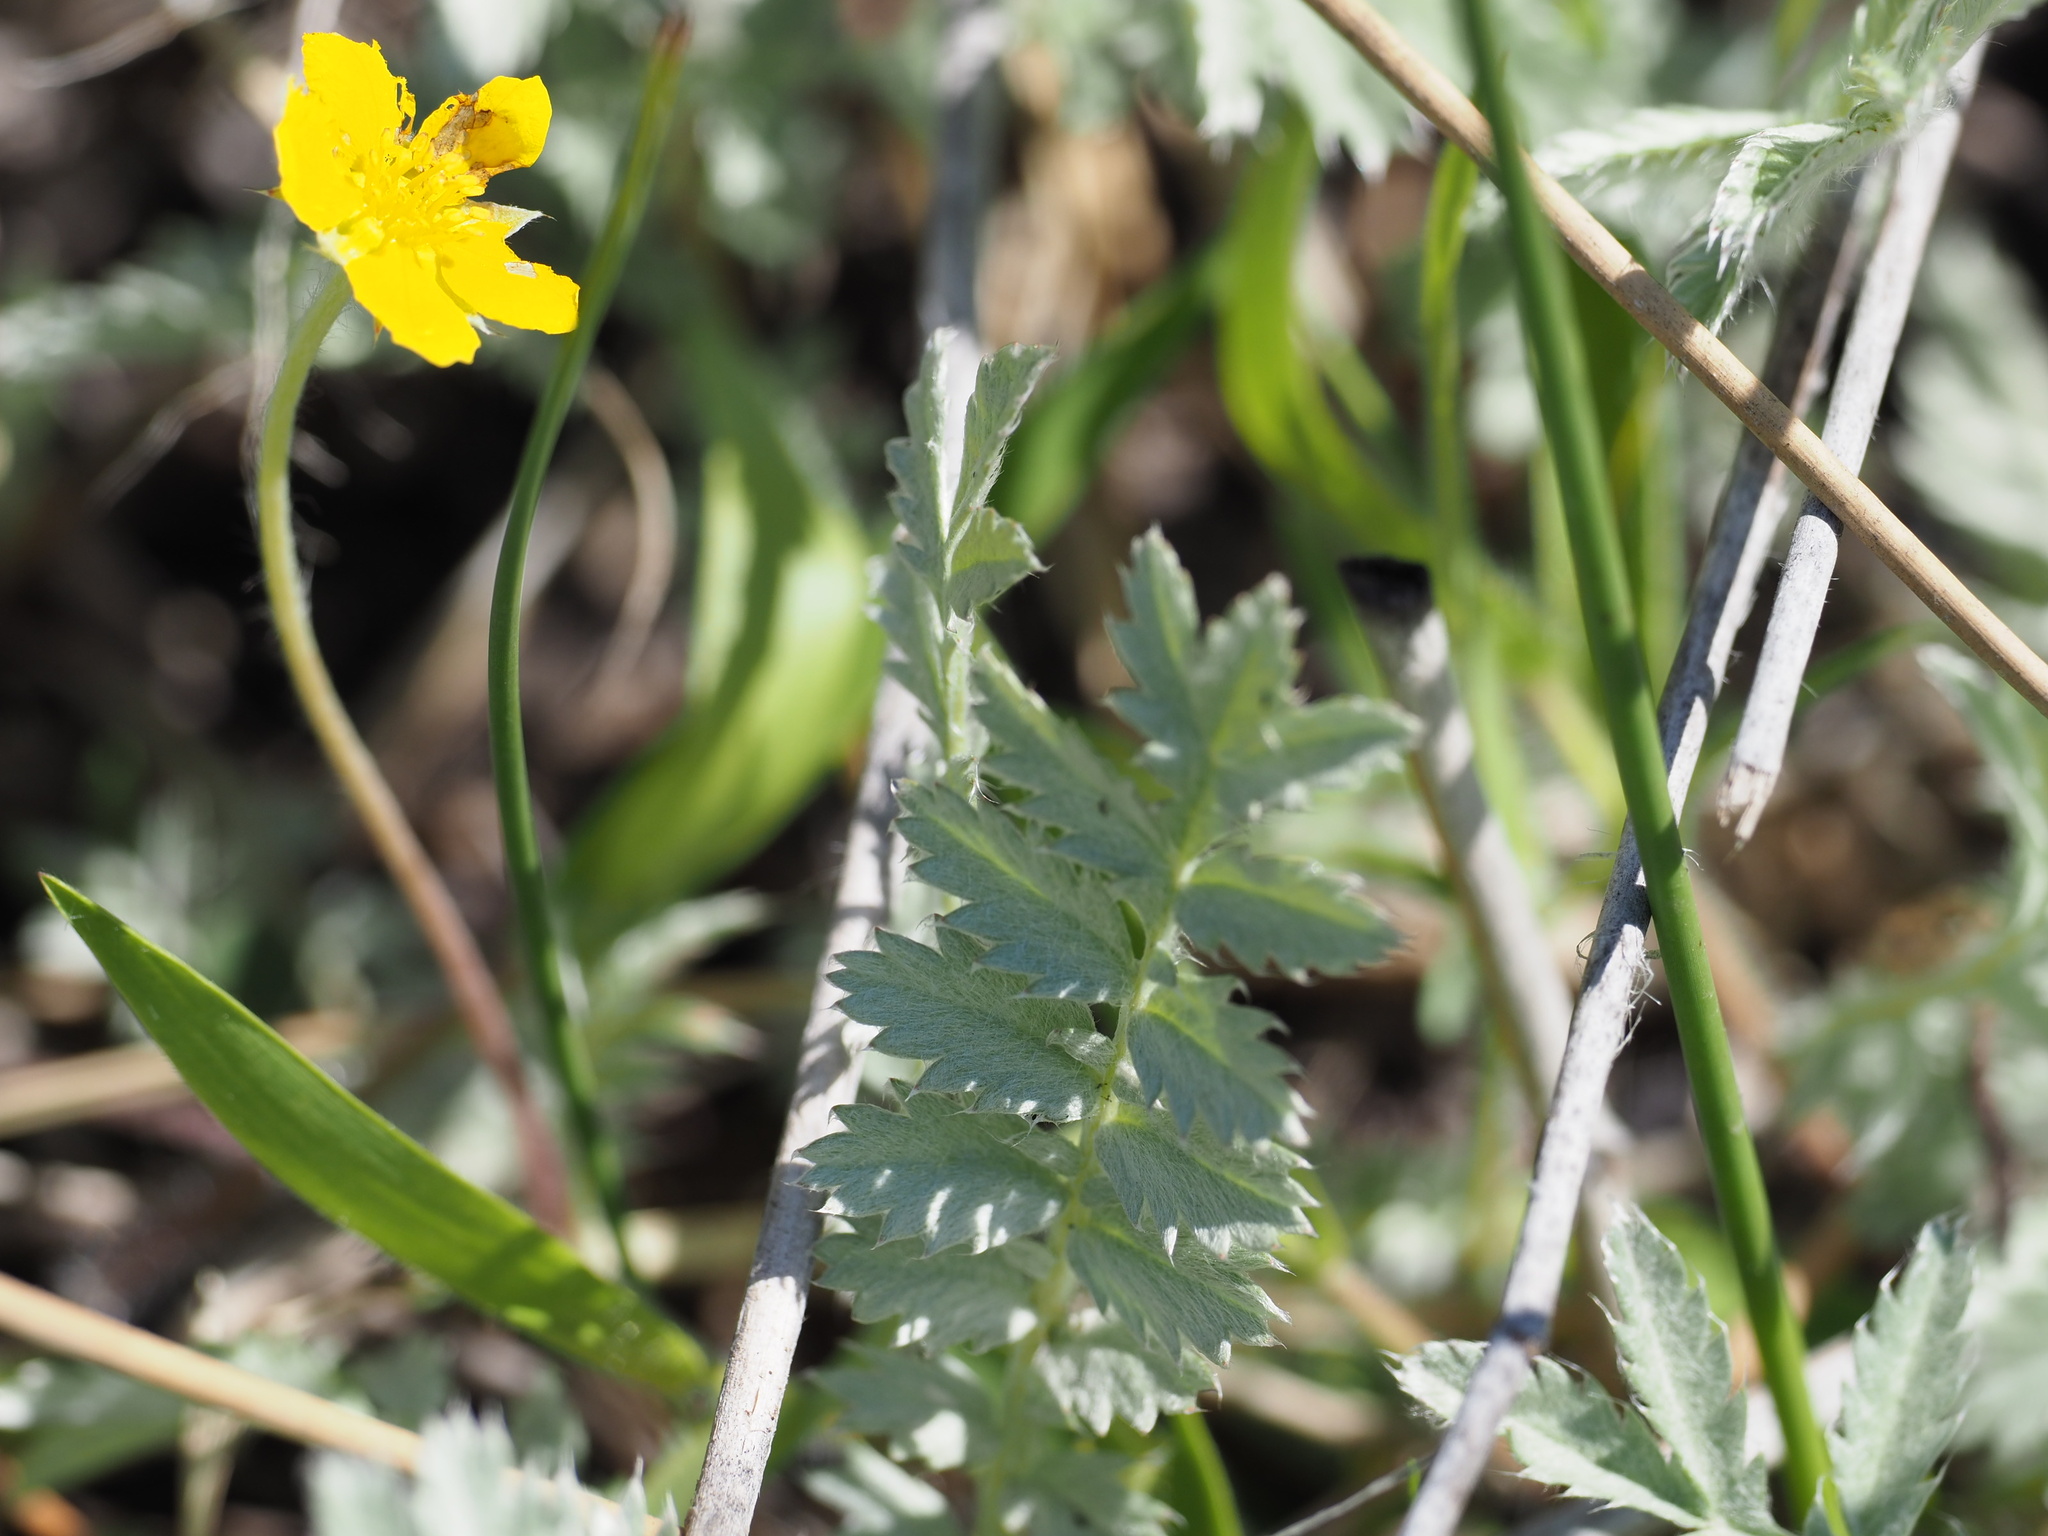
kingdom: Plantae
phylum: Tracheophyta
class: Magnoliopsida
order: Rosales
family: Rosaceae
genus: Argentina
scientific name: Argentina anserina
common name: Common silverweed
